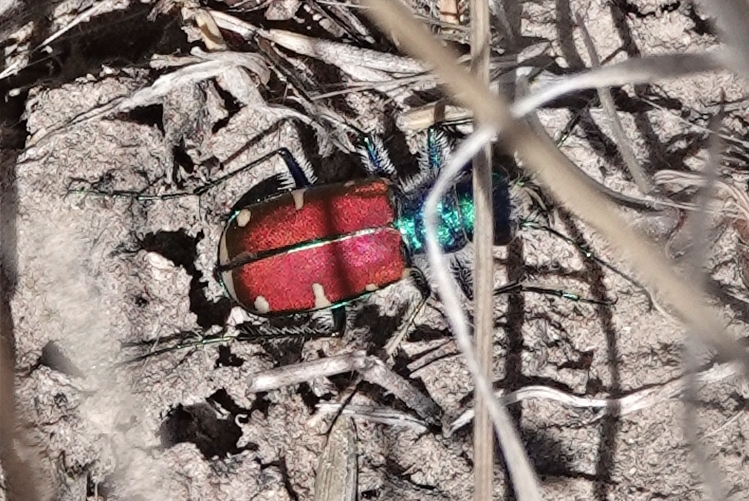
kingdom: Animalia
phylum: Arthropoda
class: Insecta
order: Coleoptera
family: Carabidae
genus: Cicindela
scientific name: Cicindela splendida
